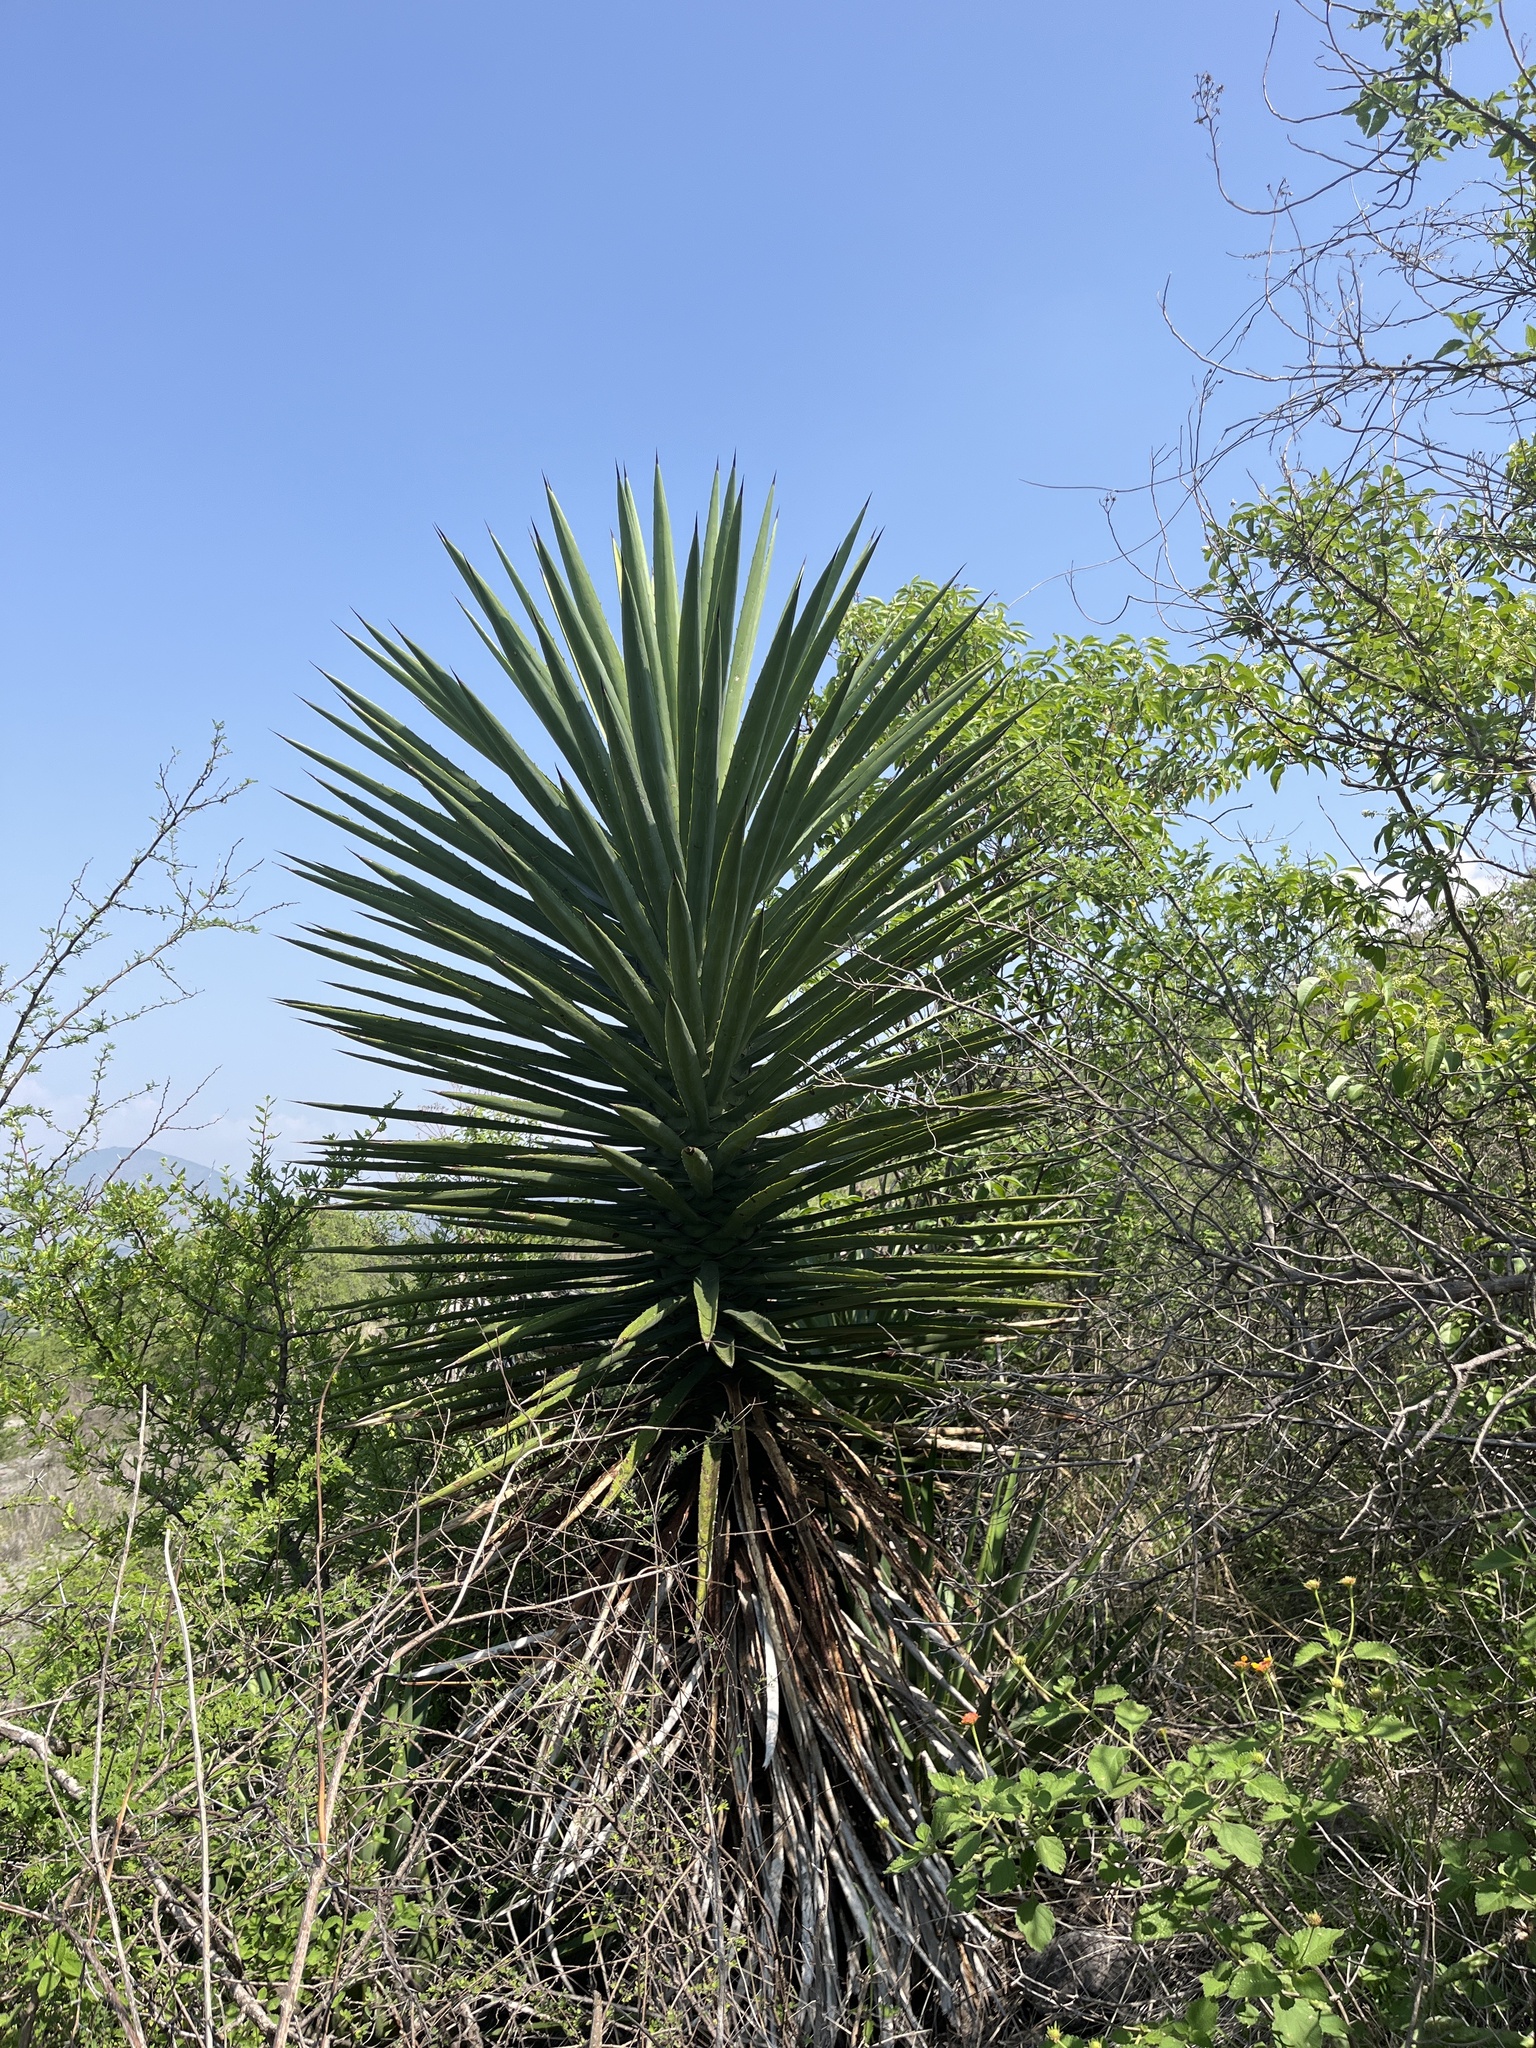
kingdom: Plantae
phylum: Tracheophyta
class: Liliopsida
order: Asparagales
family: Asparagaceae
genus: Agave
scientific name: Agave karwinskii
